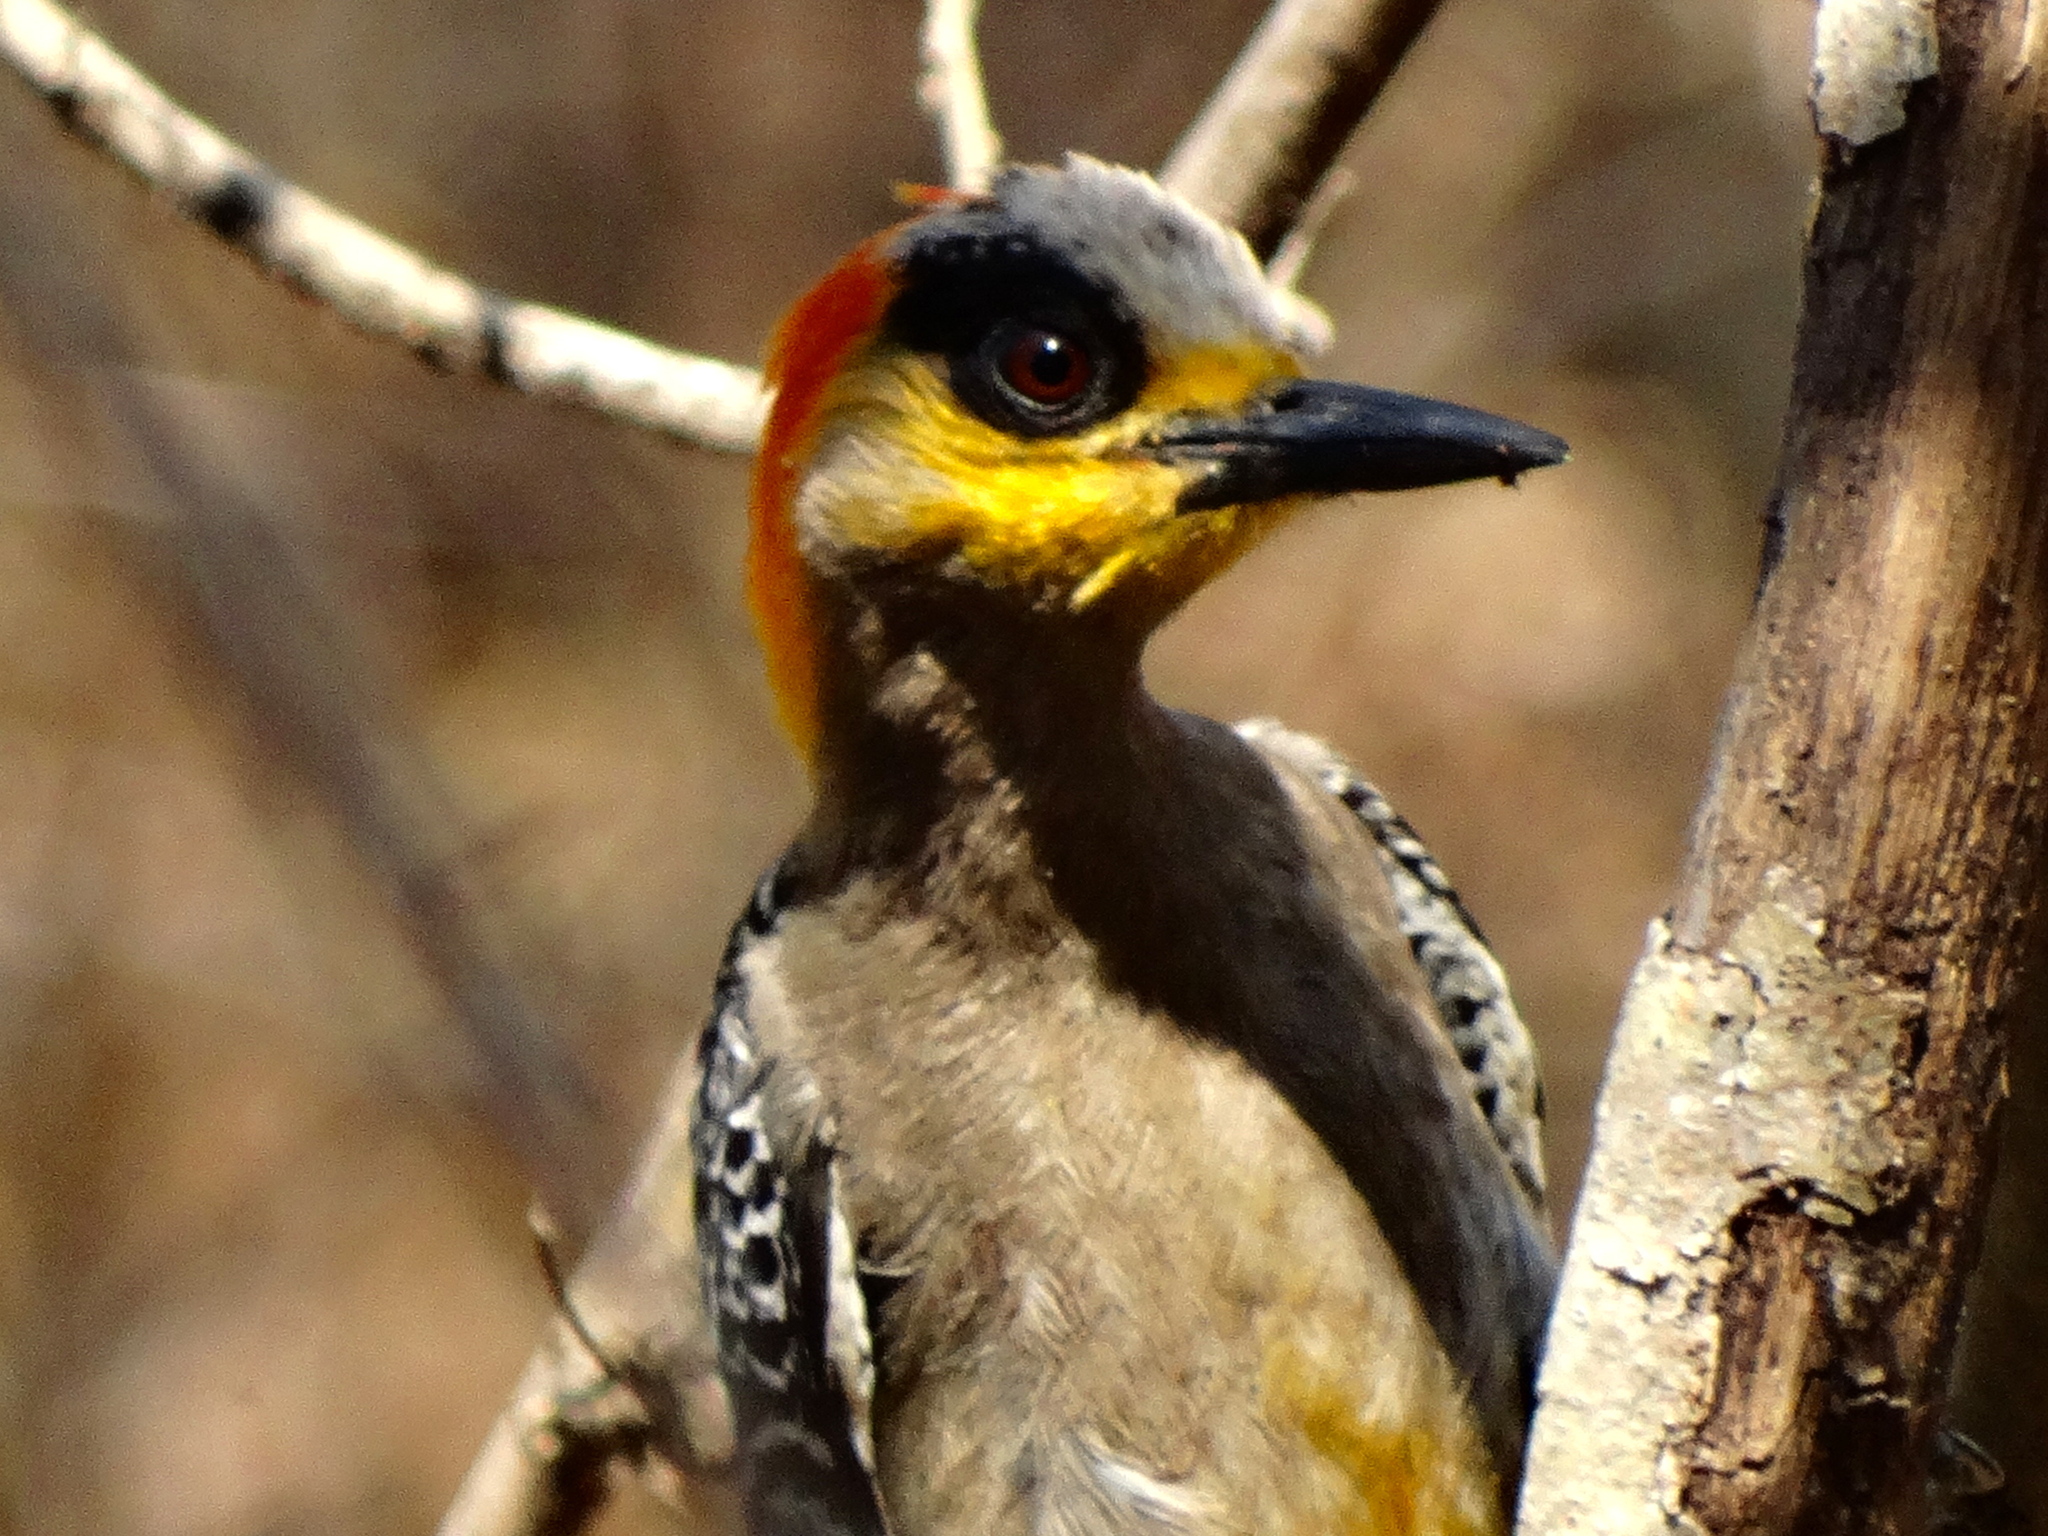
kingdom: Animalia
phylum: Chordata
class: Aves
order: Piciformes
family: Picidae
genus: Melanerpes
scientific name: Melanerpes chrysogenys
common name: Golden-cheeked woodpecker
